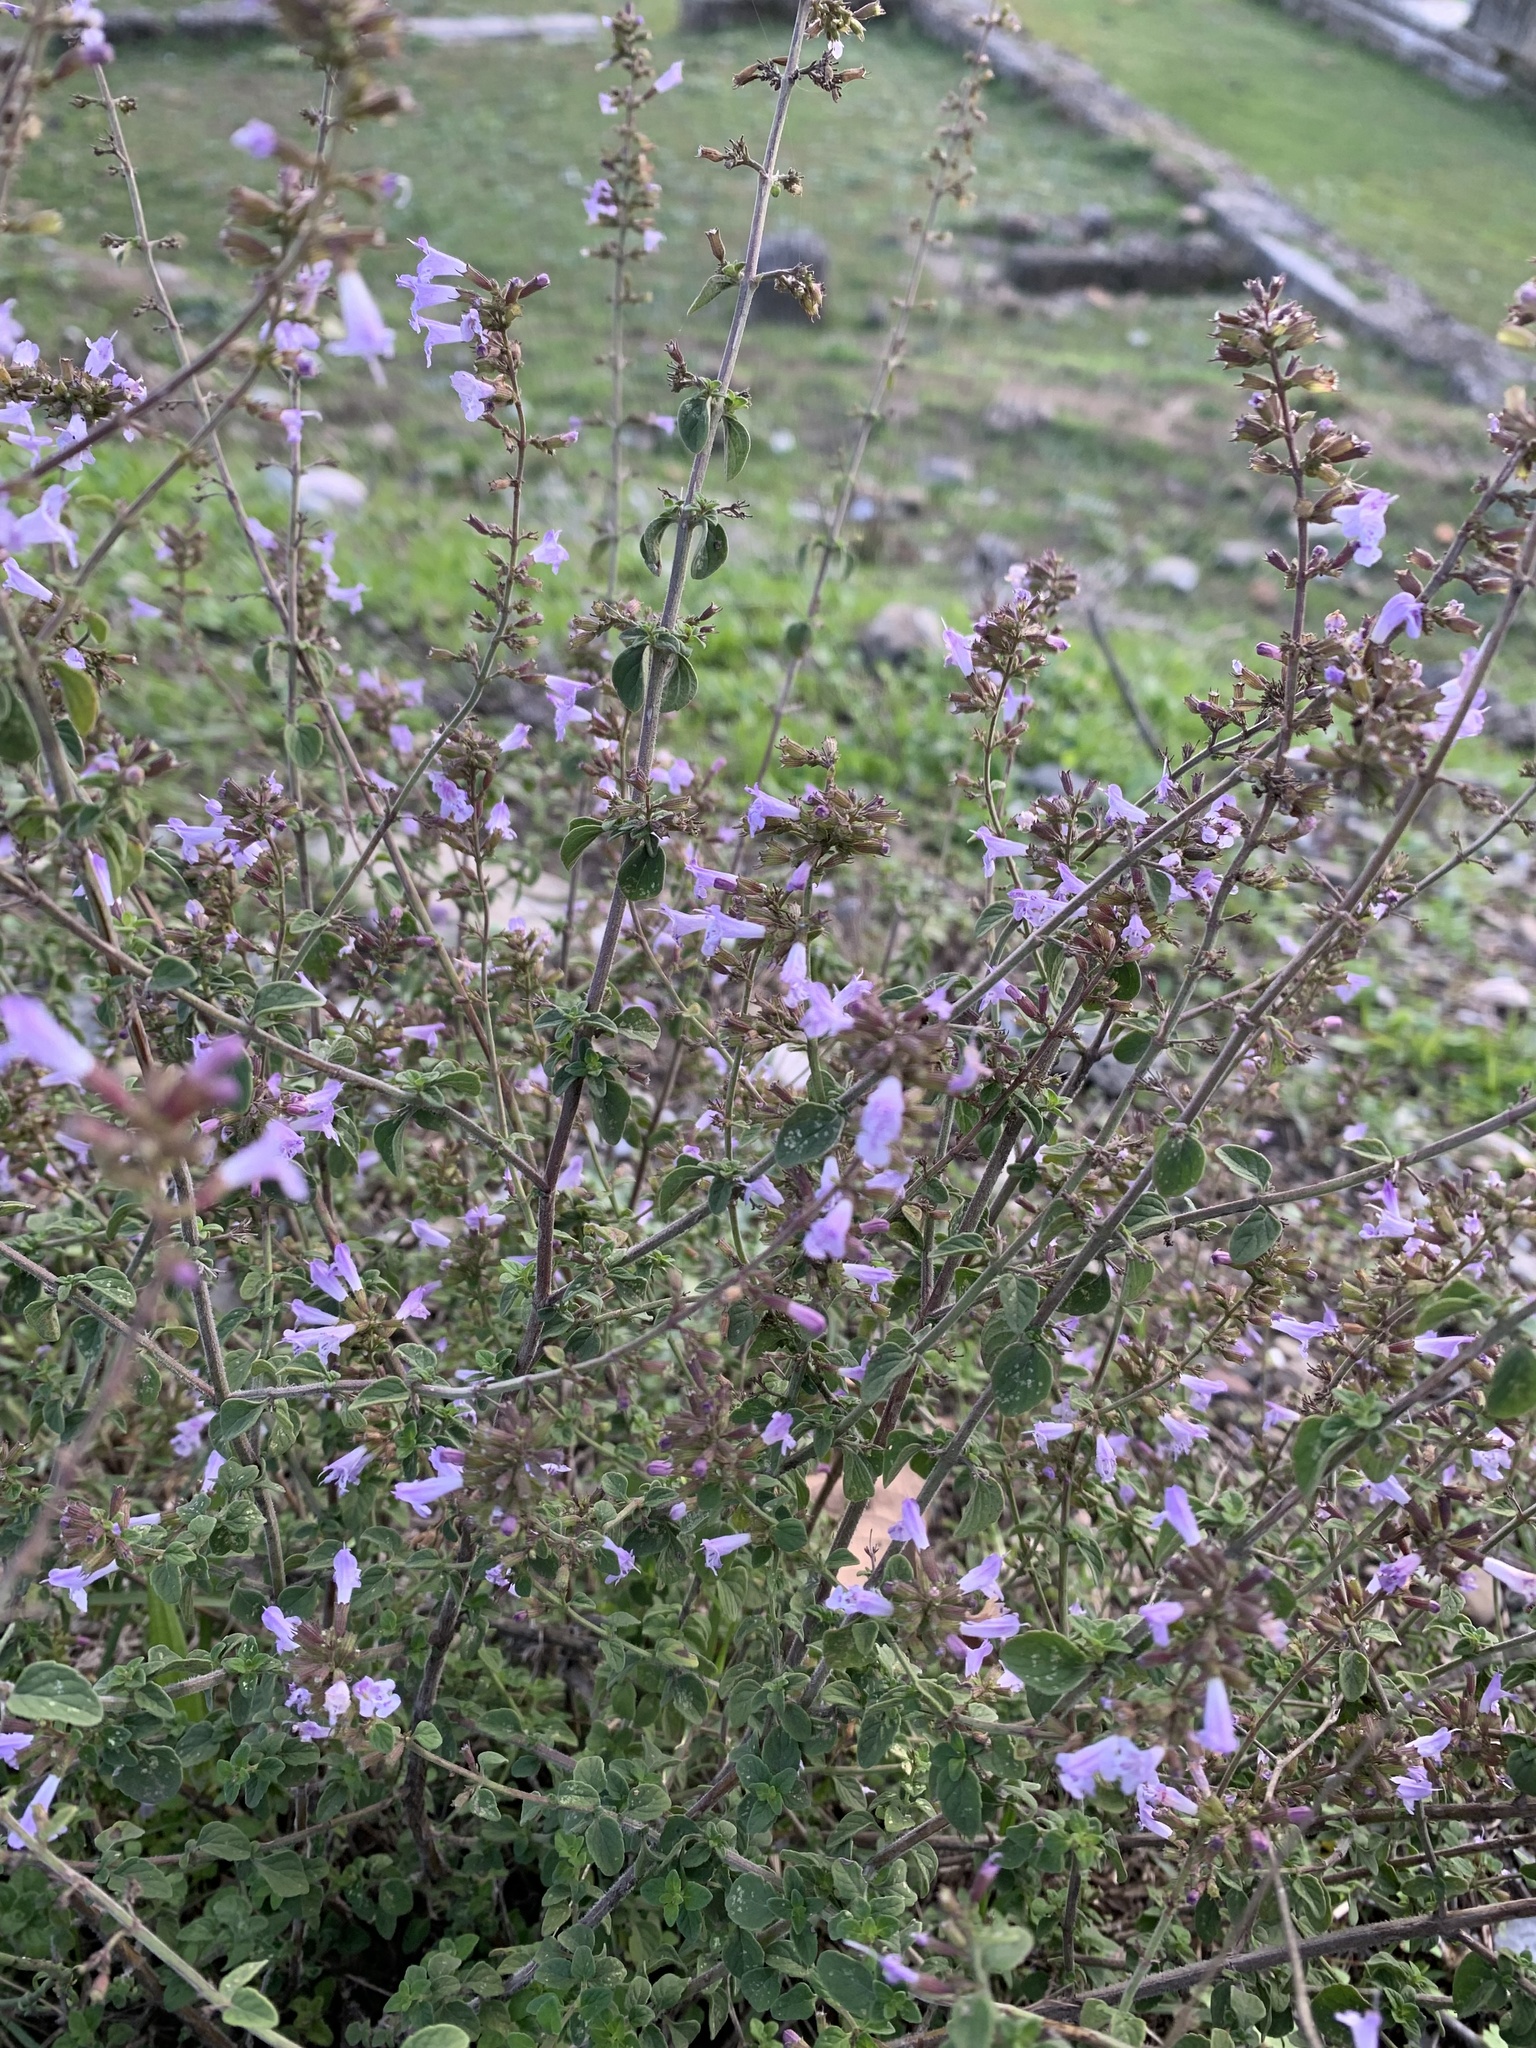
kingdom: Plantae
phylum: Tracheophyta
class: Magnoliopsida
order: Lamiales
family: Lamiaceae
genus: Clinopodium
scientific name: Clinopodium nepeta
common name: Lesser calamint
